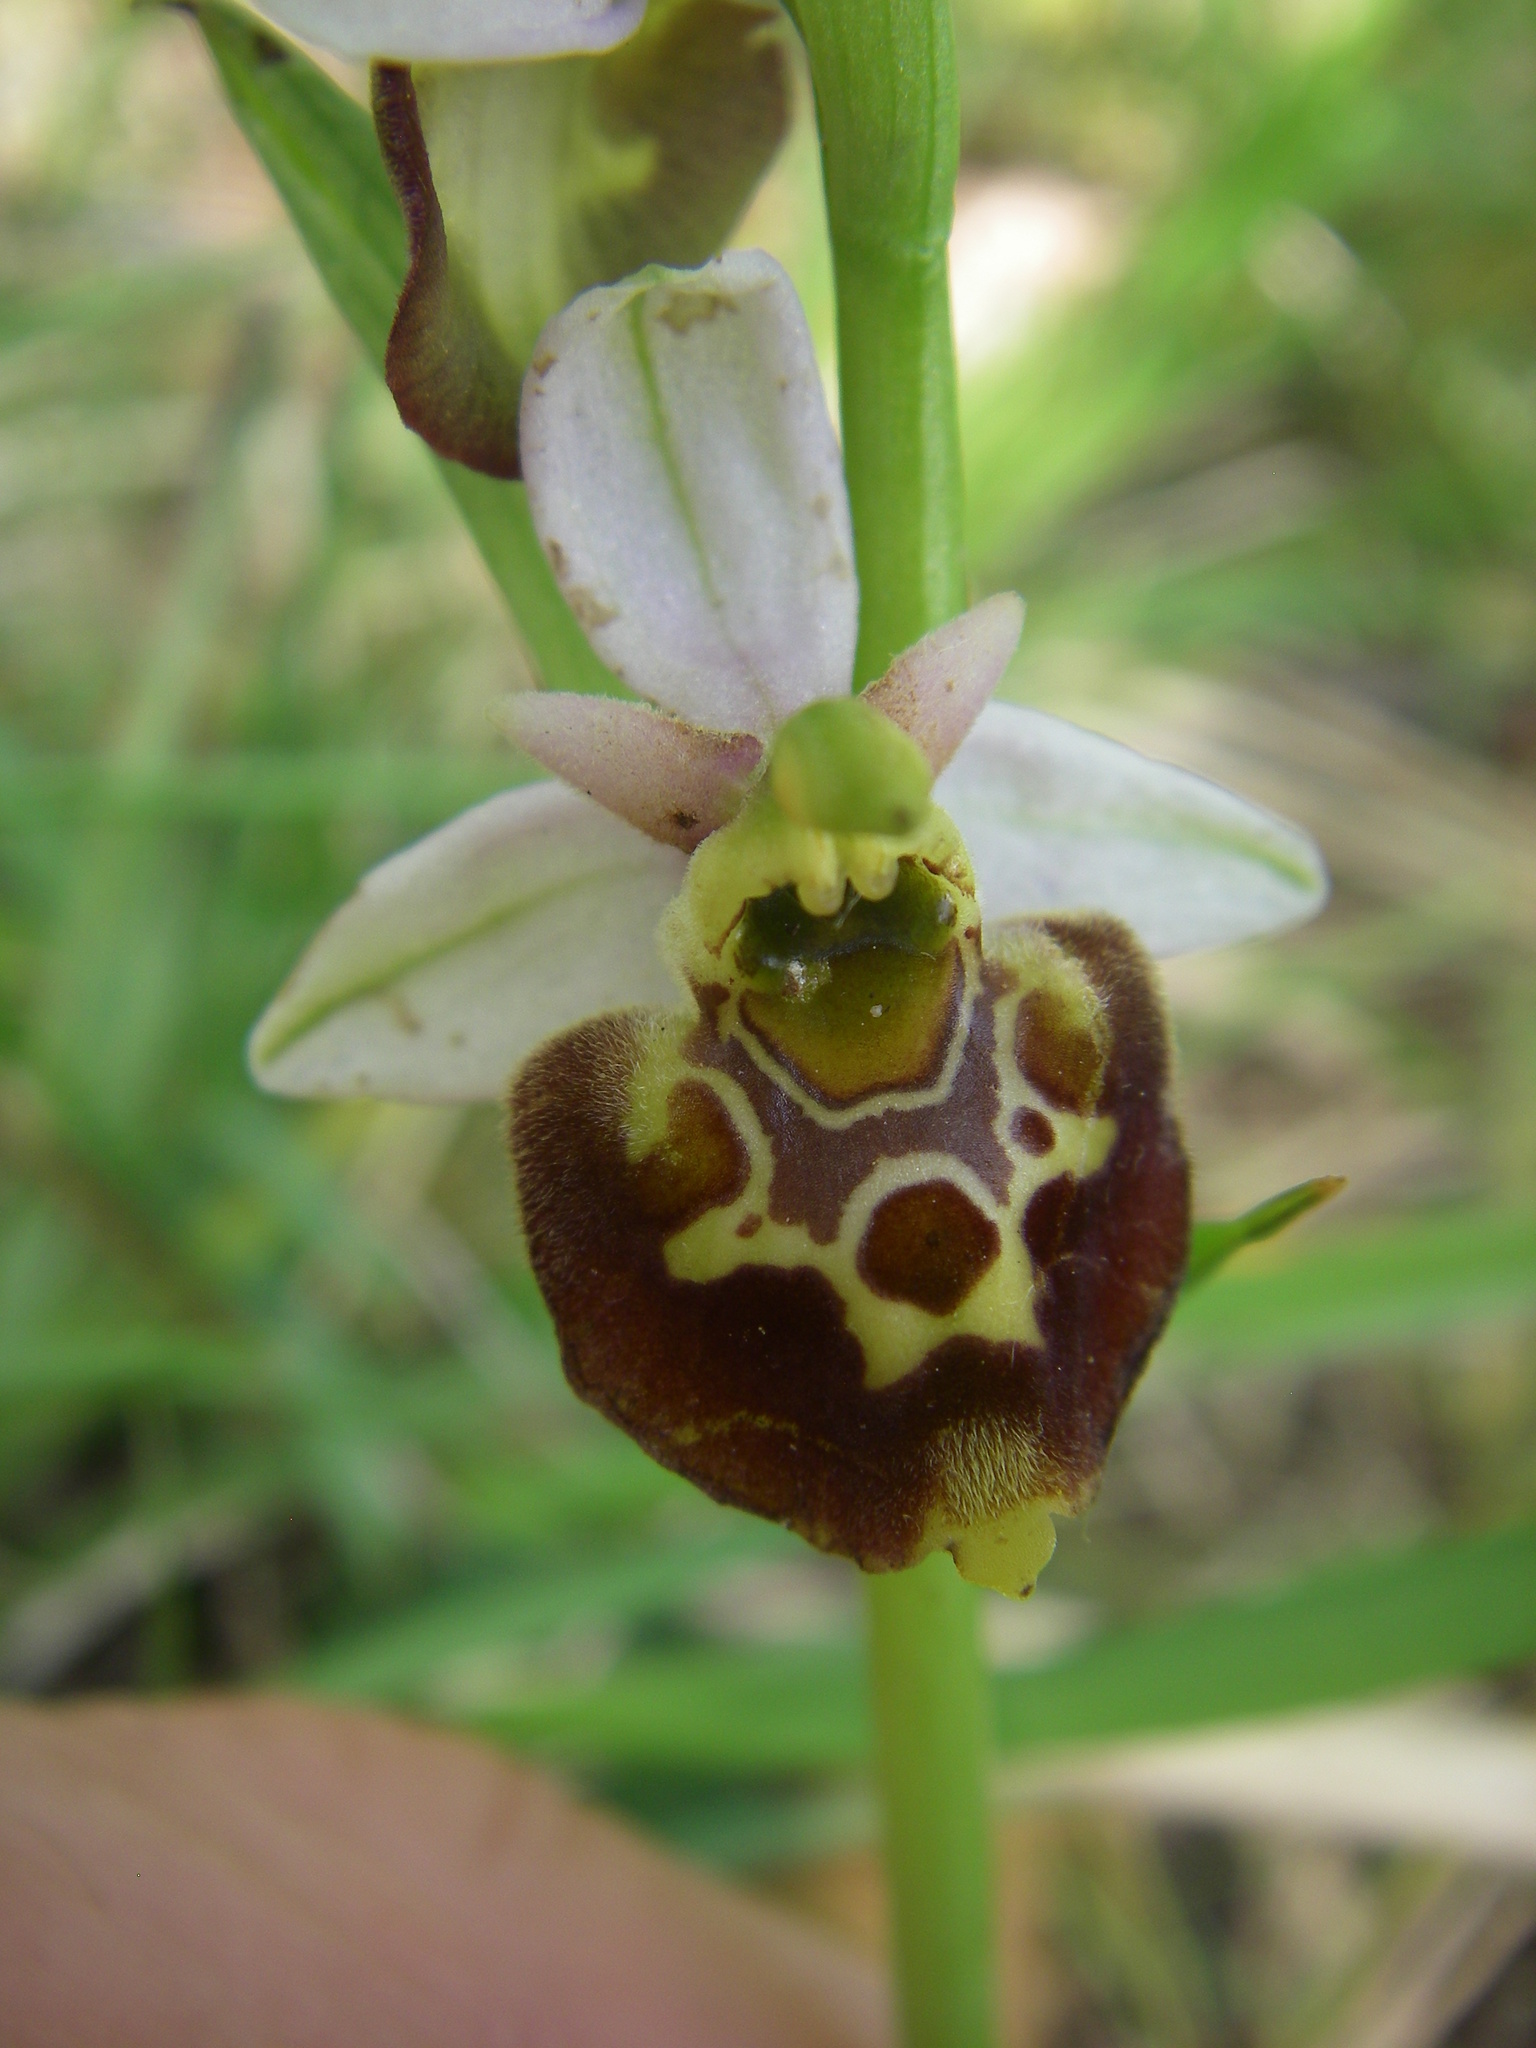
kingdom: Plantae
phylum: Tracheophyta
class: Liliopsida
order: Asparagales
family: Orchidaceae
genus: Ophrys
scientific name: Ophrys holosericea
